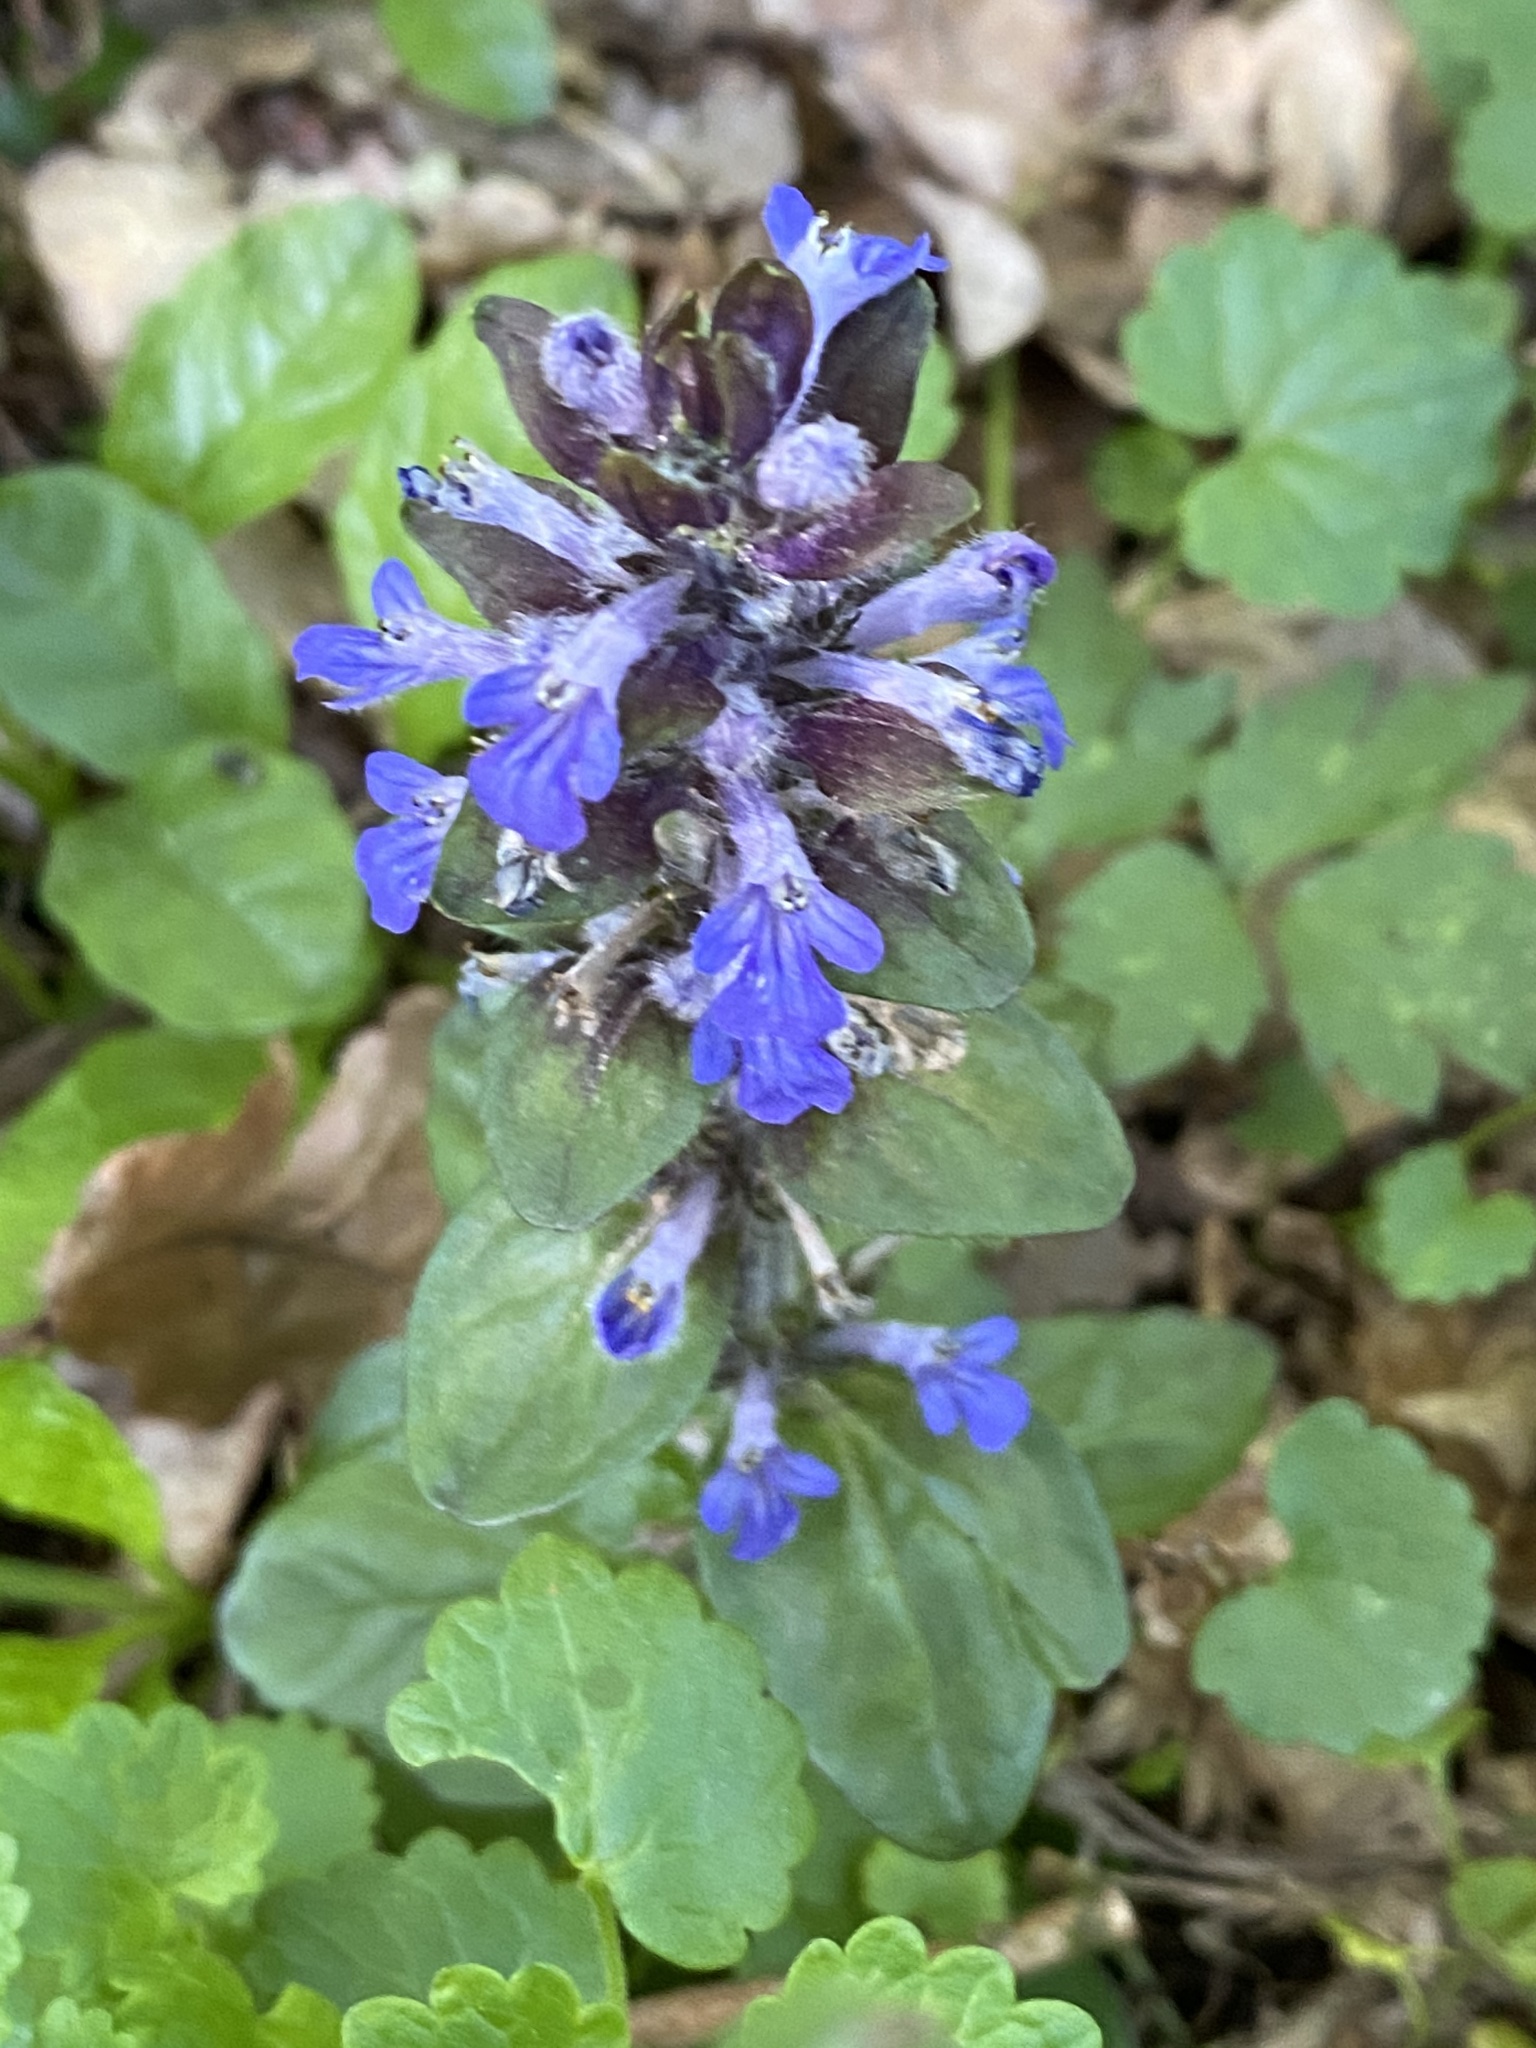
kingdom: Plantae
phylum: Tracheophyta
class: Magnoliopsida
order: Lamiales
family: Lamiaceae
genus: Ajuga
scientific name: Ajuga reptans
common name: Bugle
